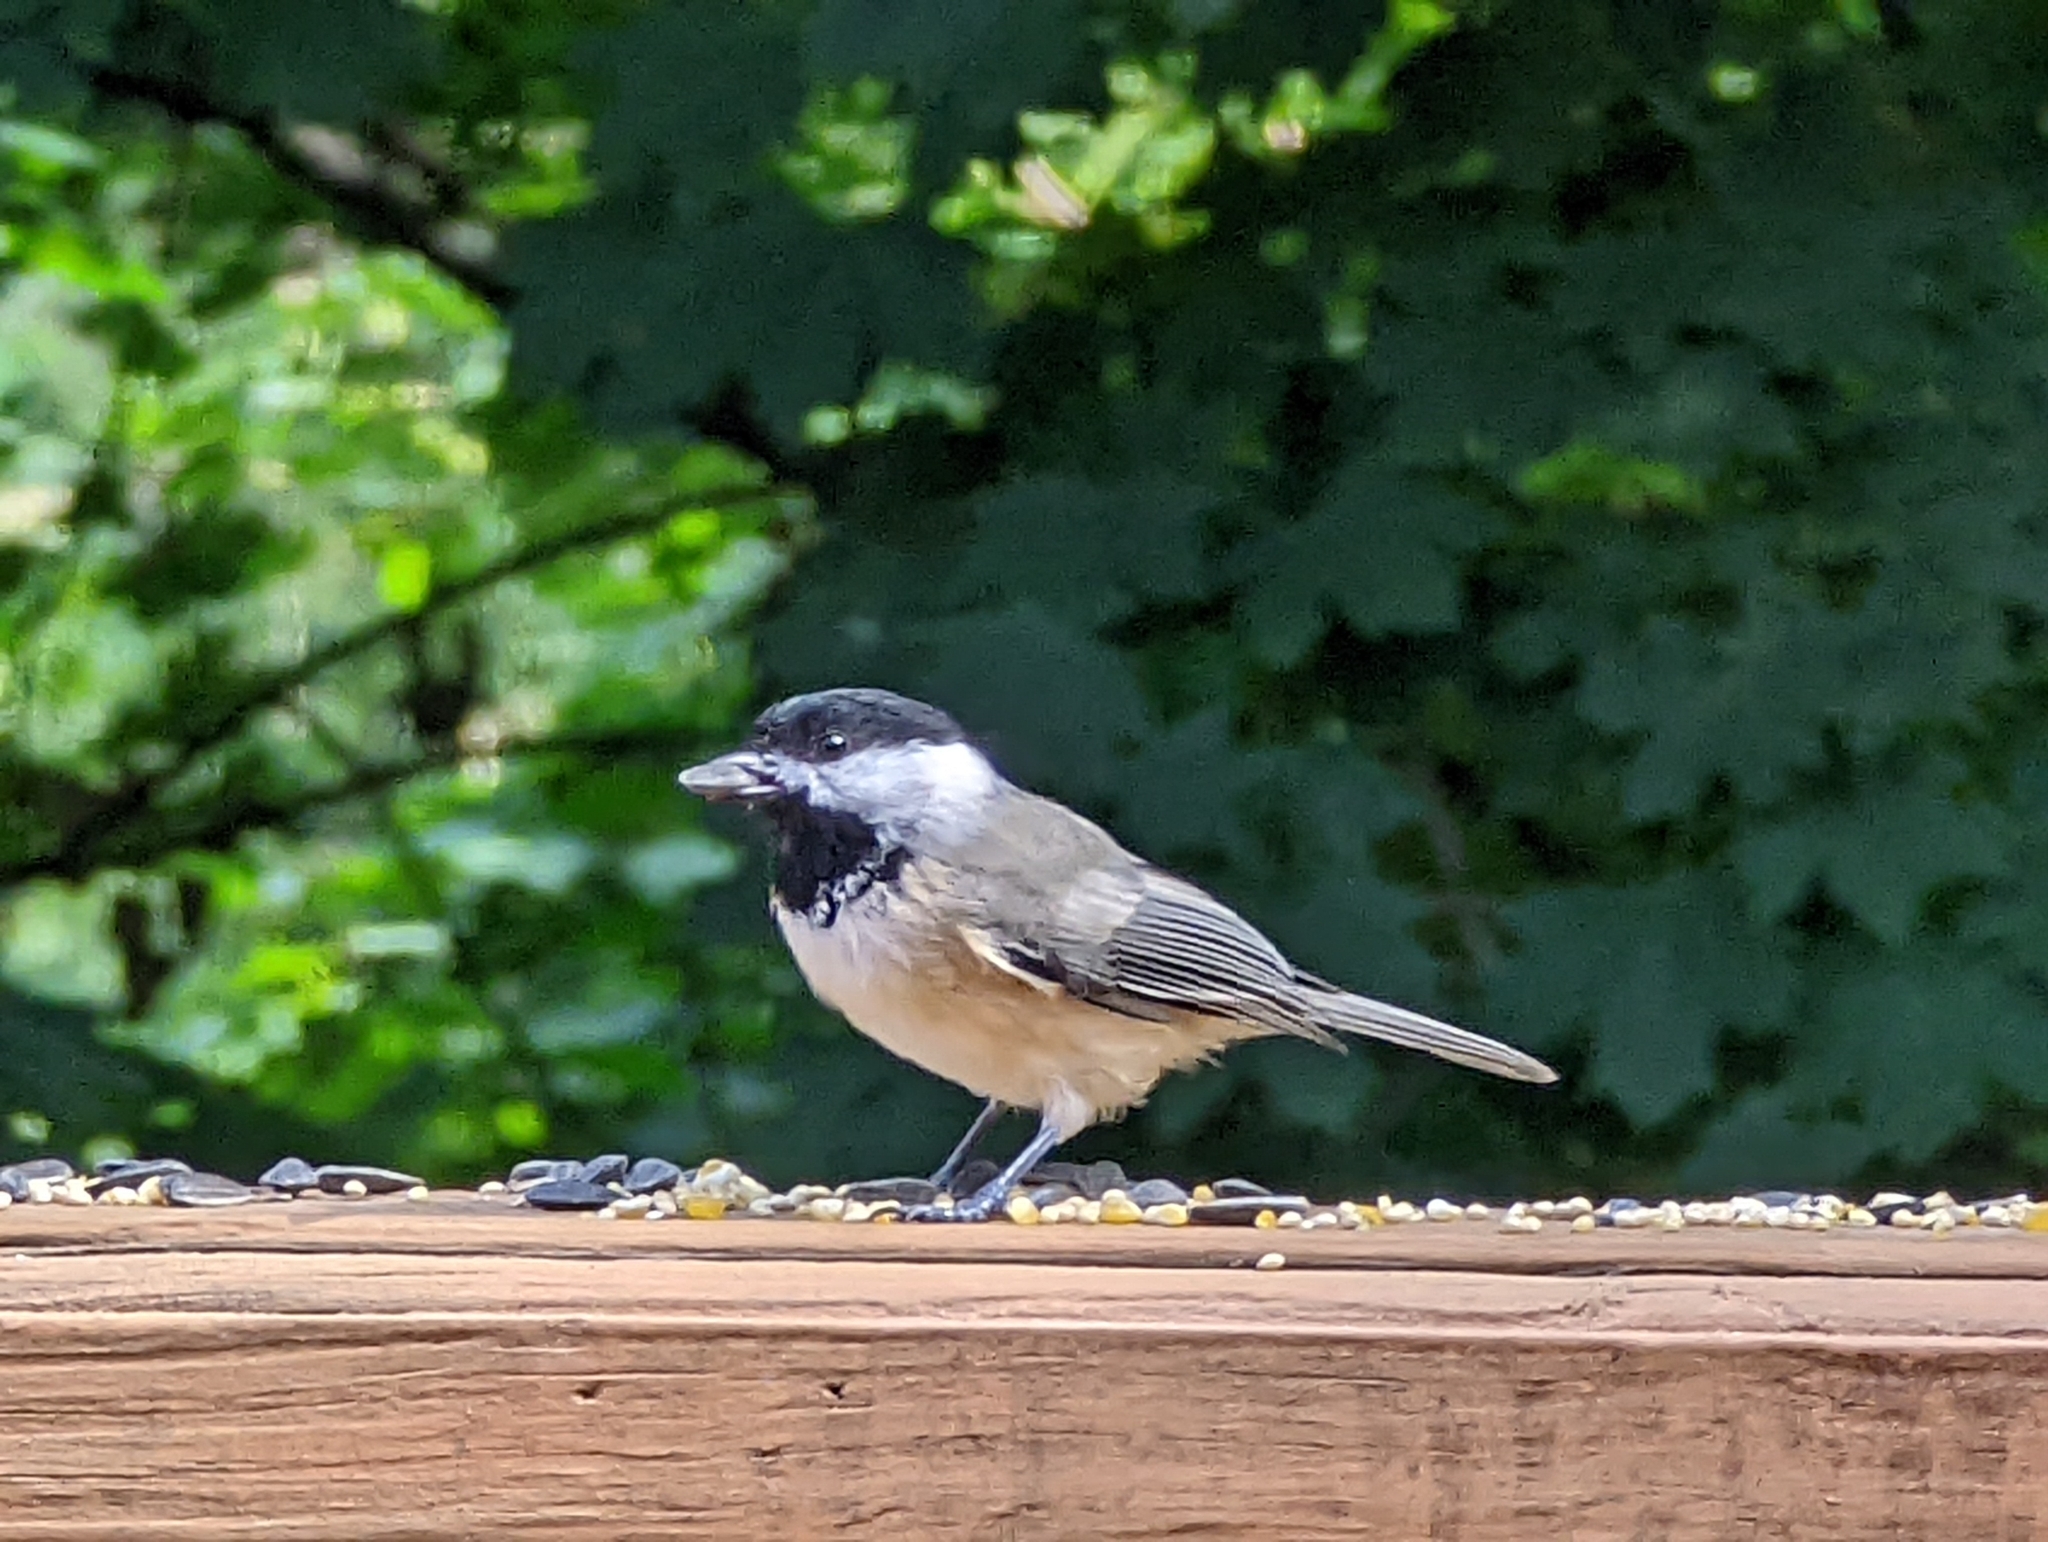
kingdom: Animalia
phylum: Chordata
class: Aves
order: Passeriformes
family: Paridae
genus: Poecile
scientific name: Poecile carolinensis
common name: Carolina chickadee
